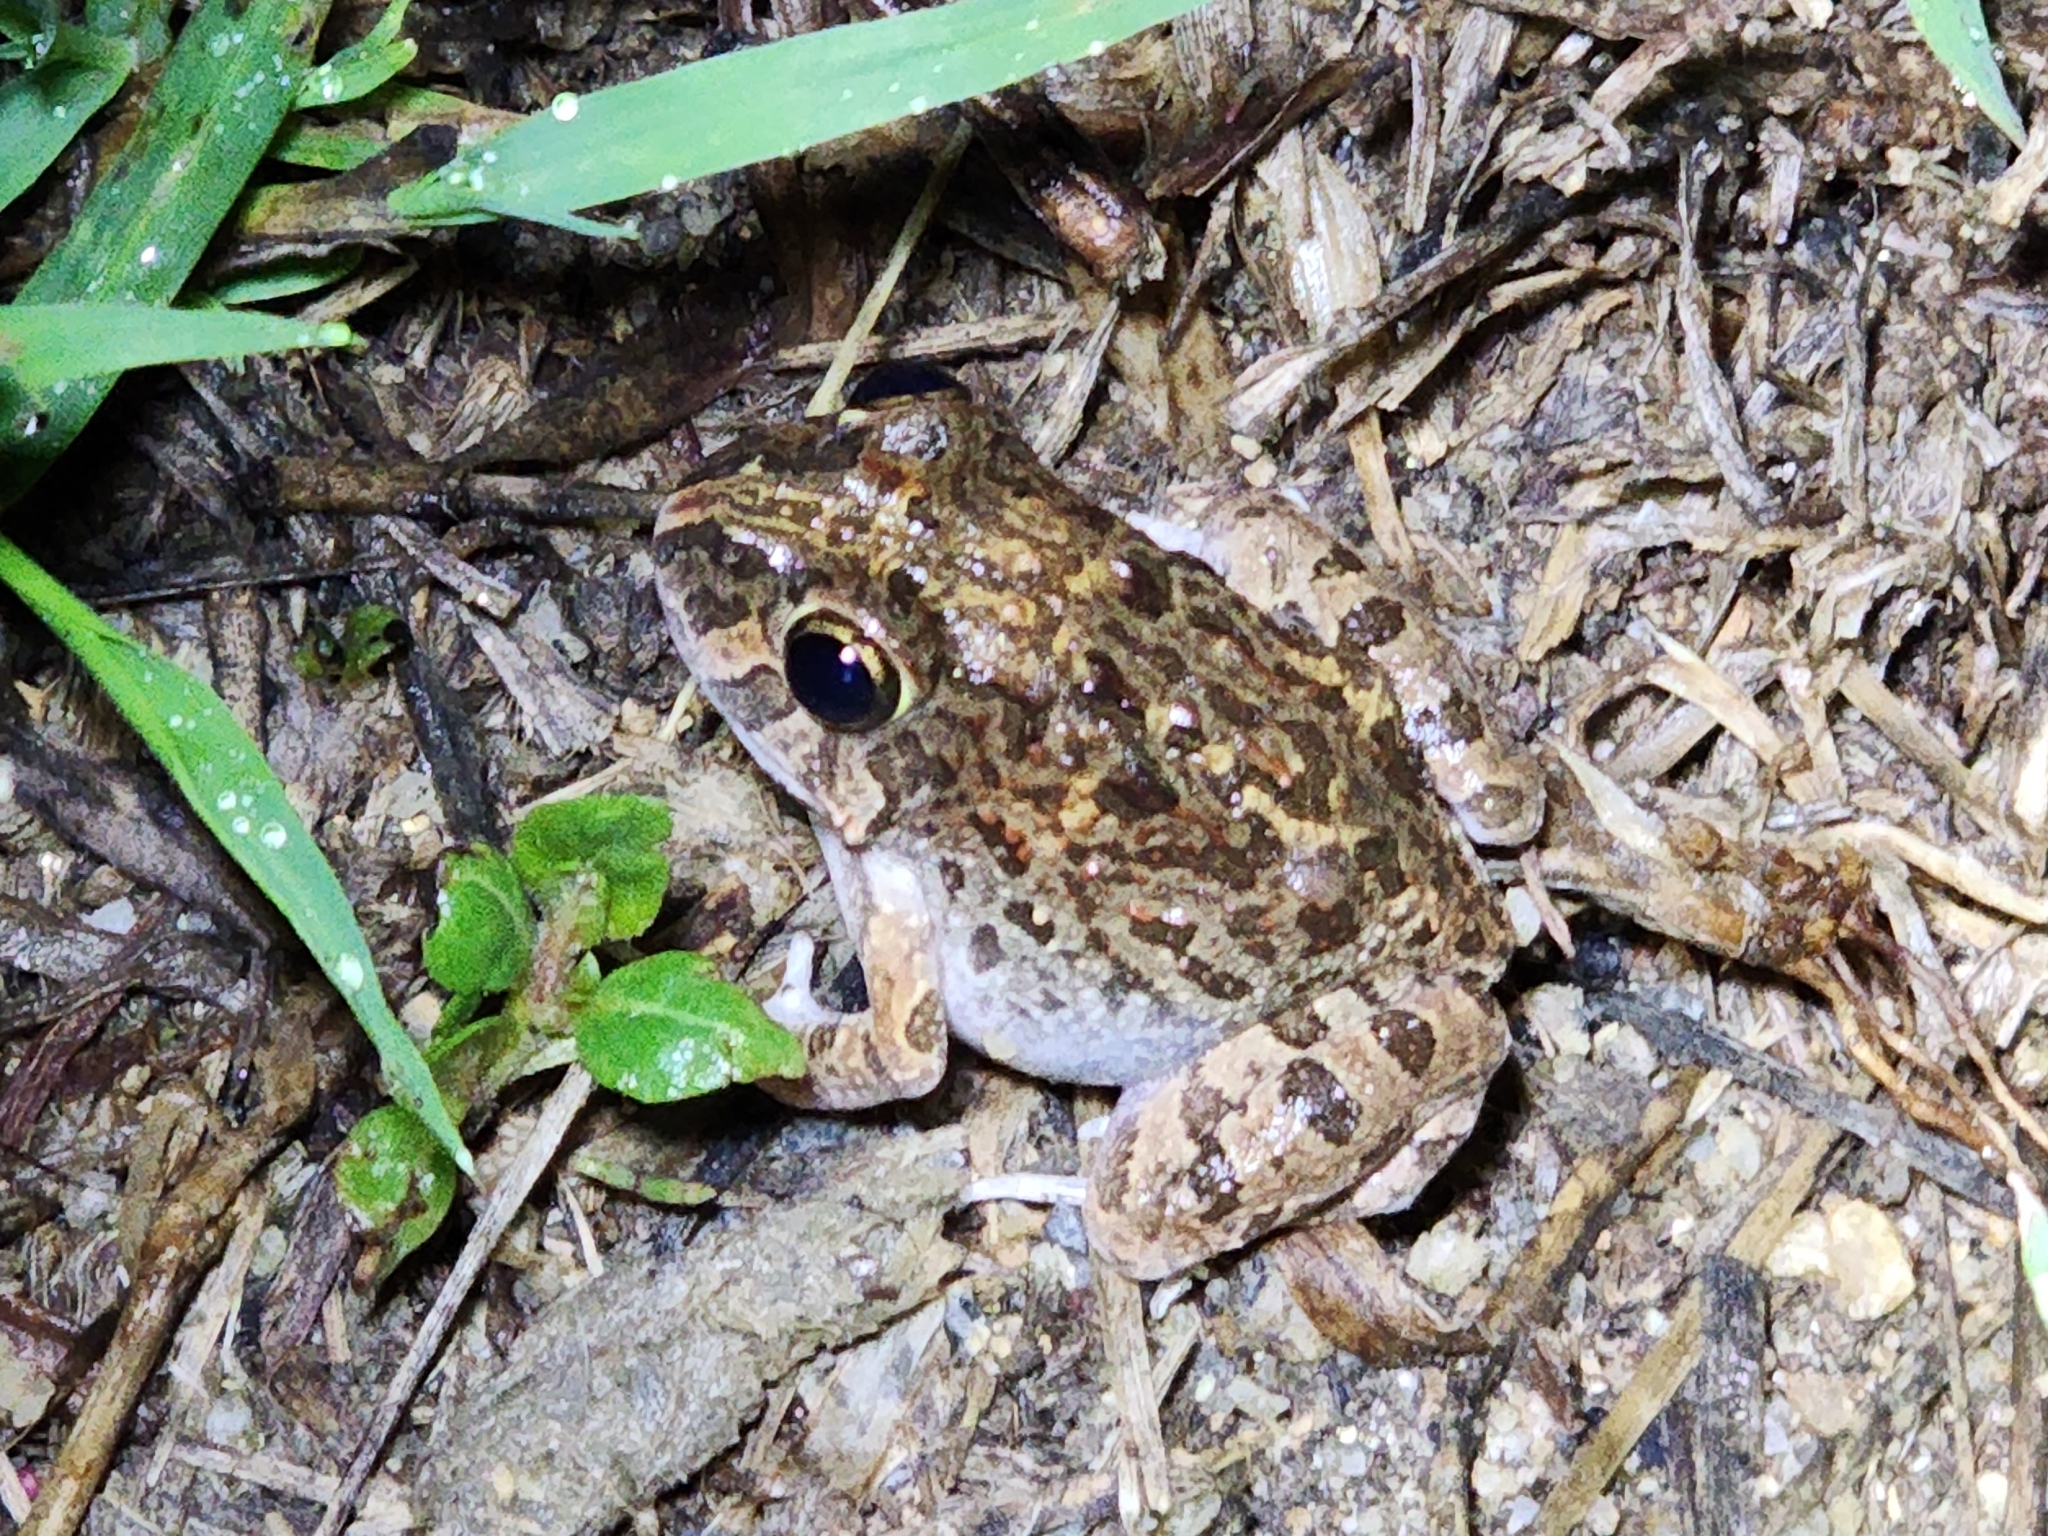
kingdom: Animalia
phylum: Chordata
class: Amphibia
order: Anura
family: Limnodynastidae
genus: Platyplectrum
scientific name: Platyplectrum ornatum
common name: Ornate burrowing frog
